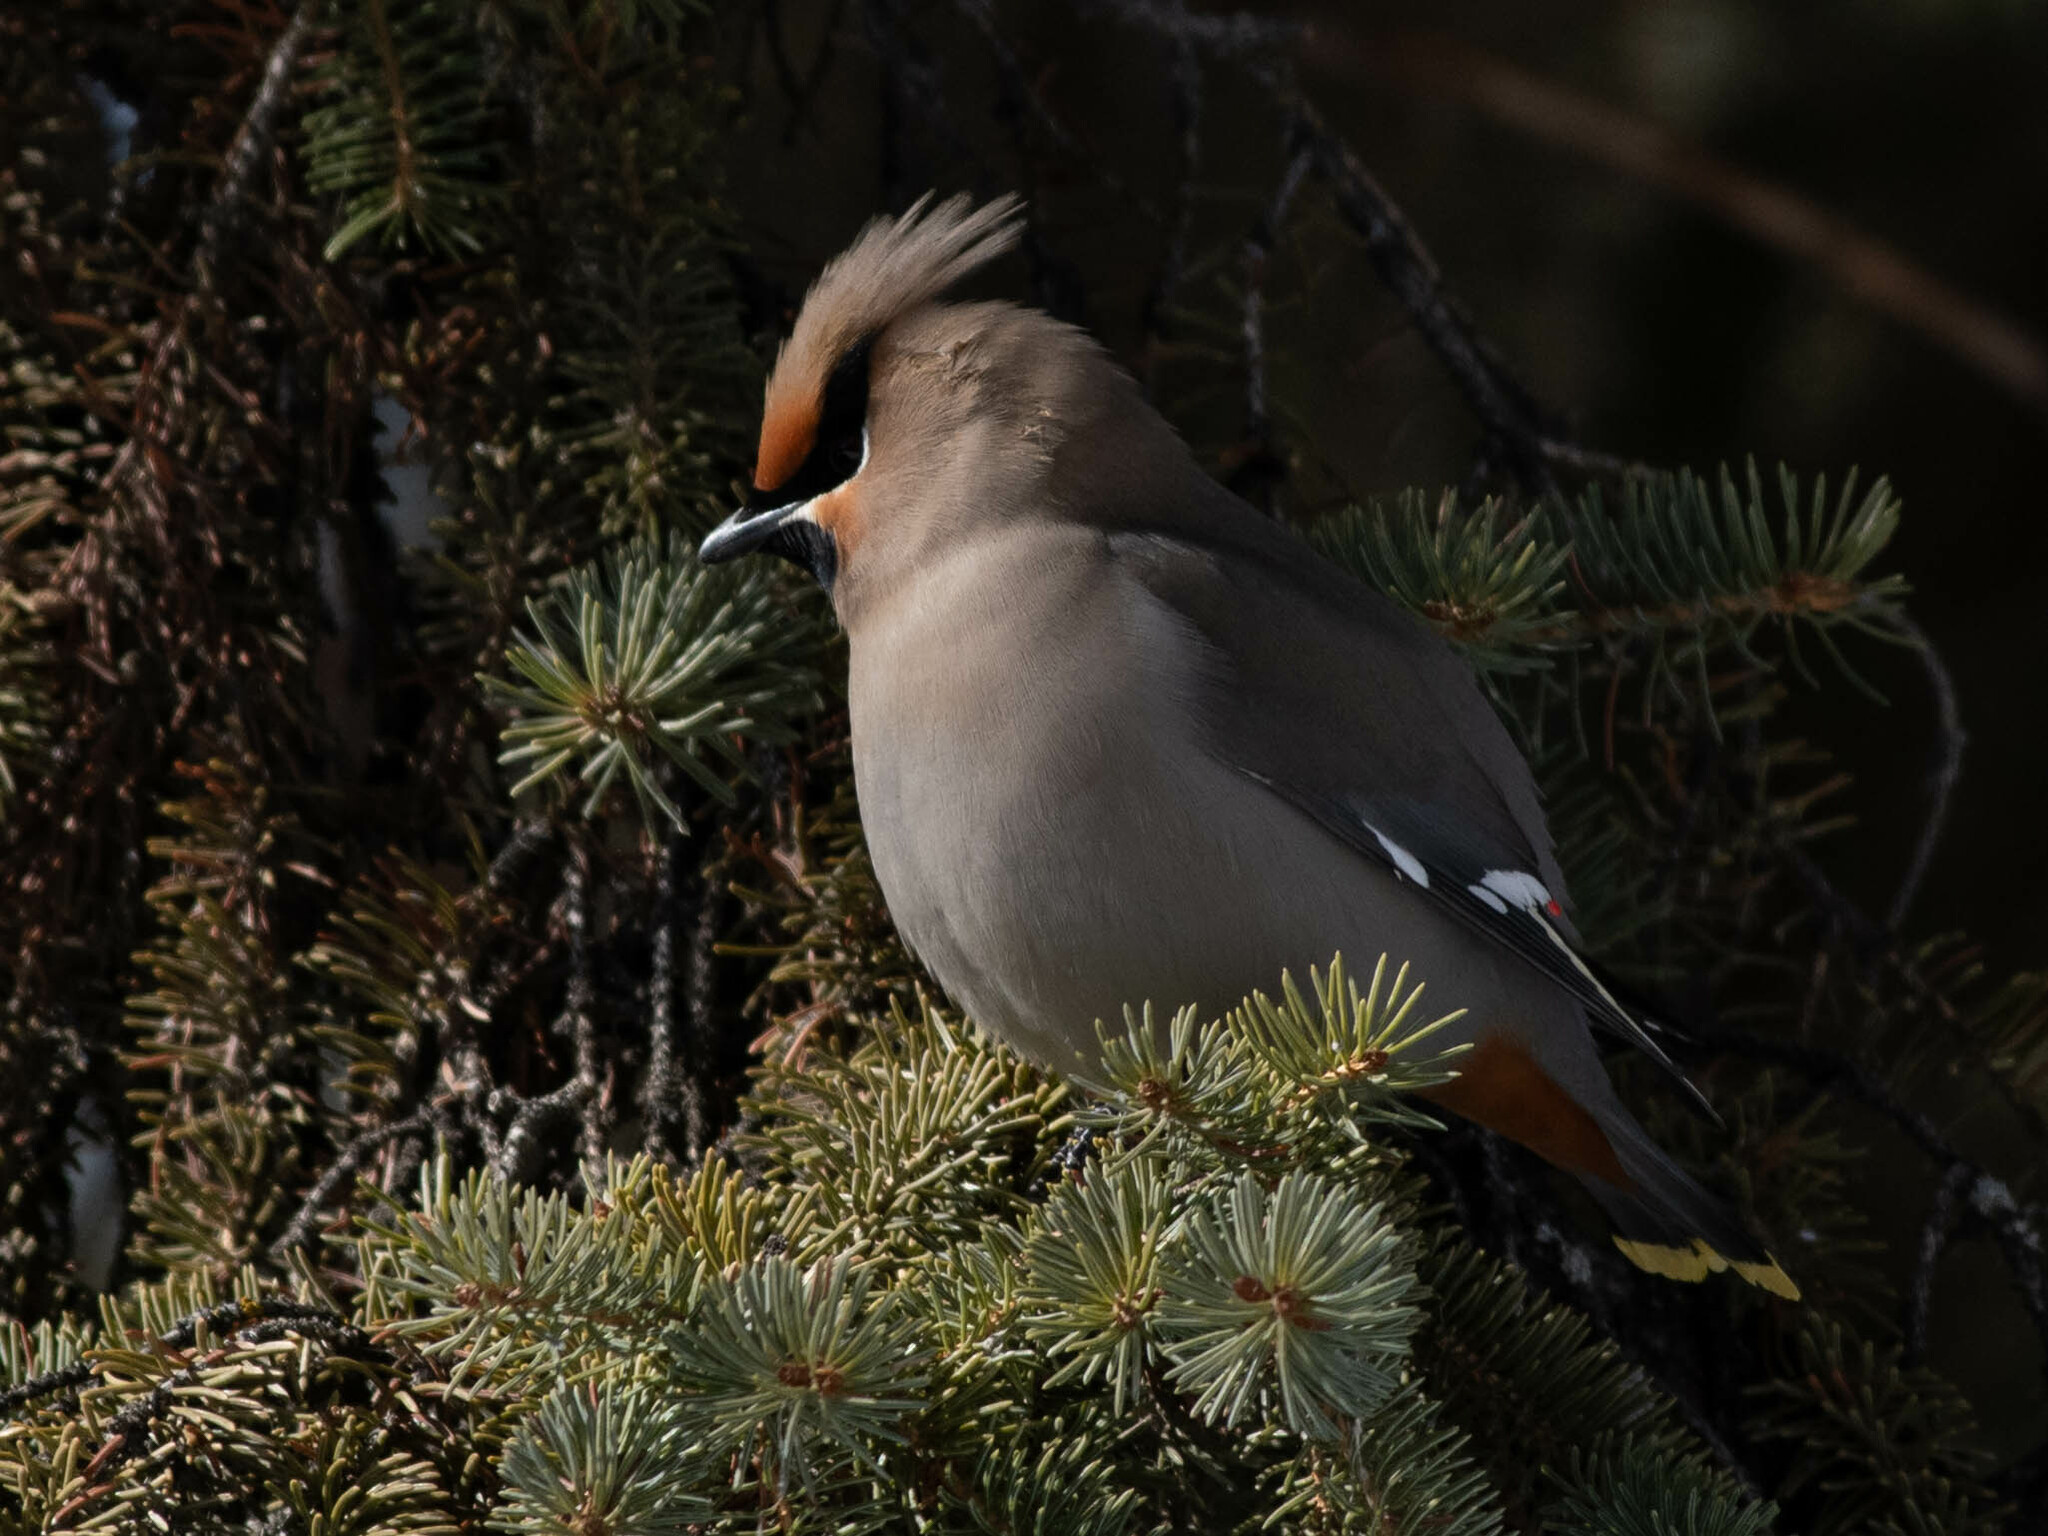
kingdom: Animalia
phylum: Chordata
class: Aves
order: Passeriformes
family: Bombycillidae
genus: Bombycilla
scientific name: Bombycilla garrulus
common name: Bohemian waxwing
